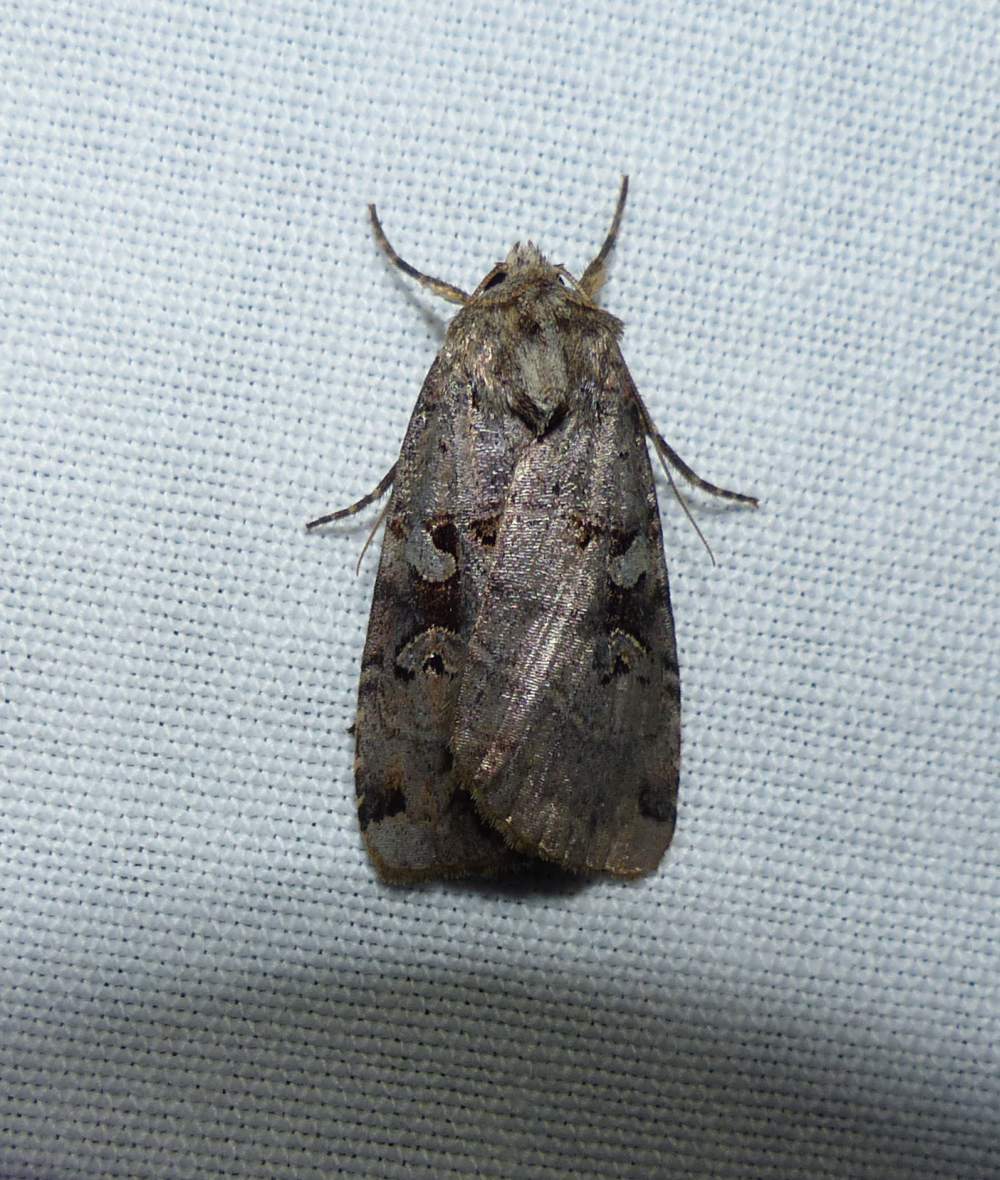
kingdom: Animalia
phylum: Arthropoda
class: Insecta
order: Lepidoptera
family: Noctuidae
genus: Xestia
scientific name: Xestia normaniana
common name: Norman's dart moth
